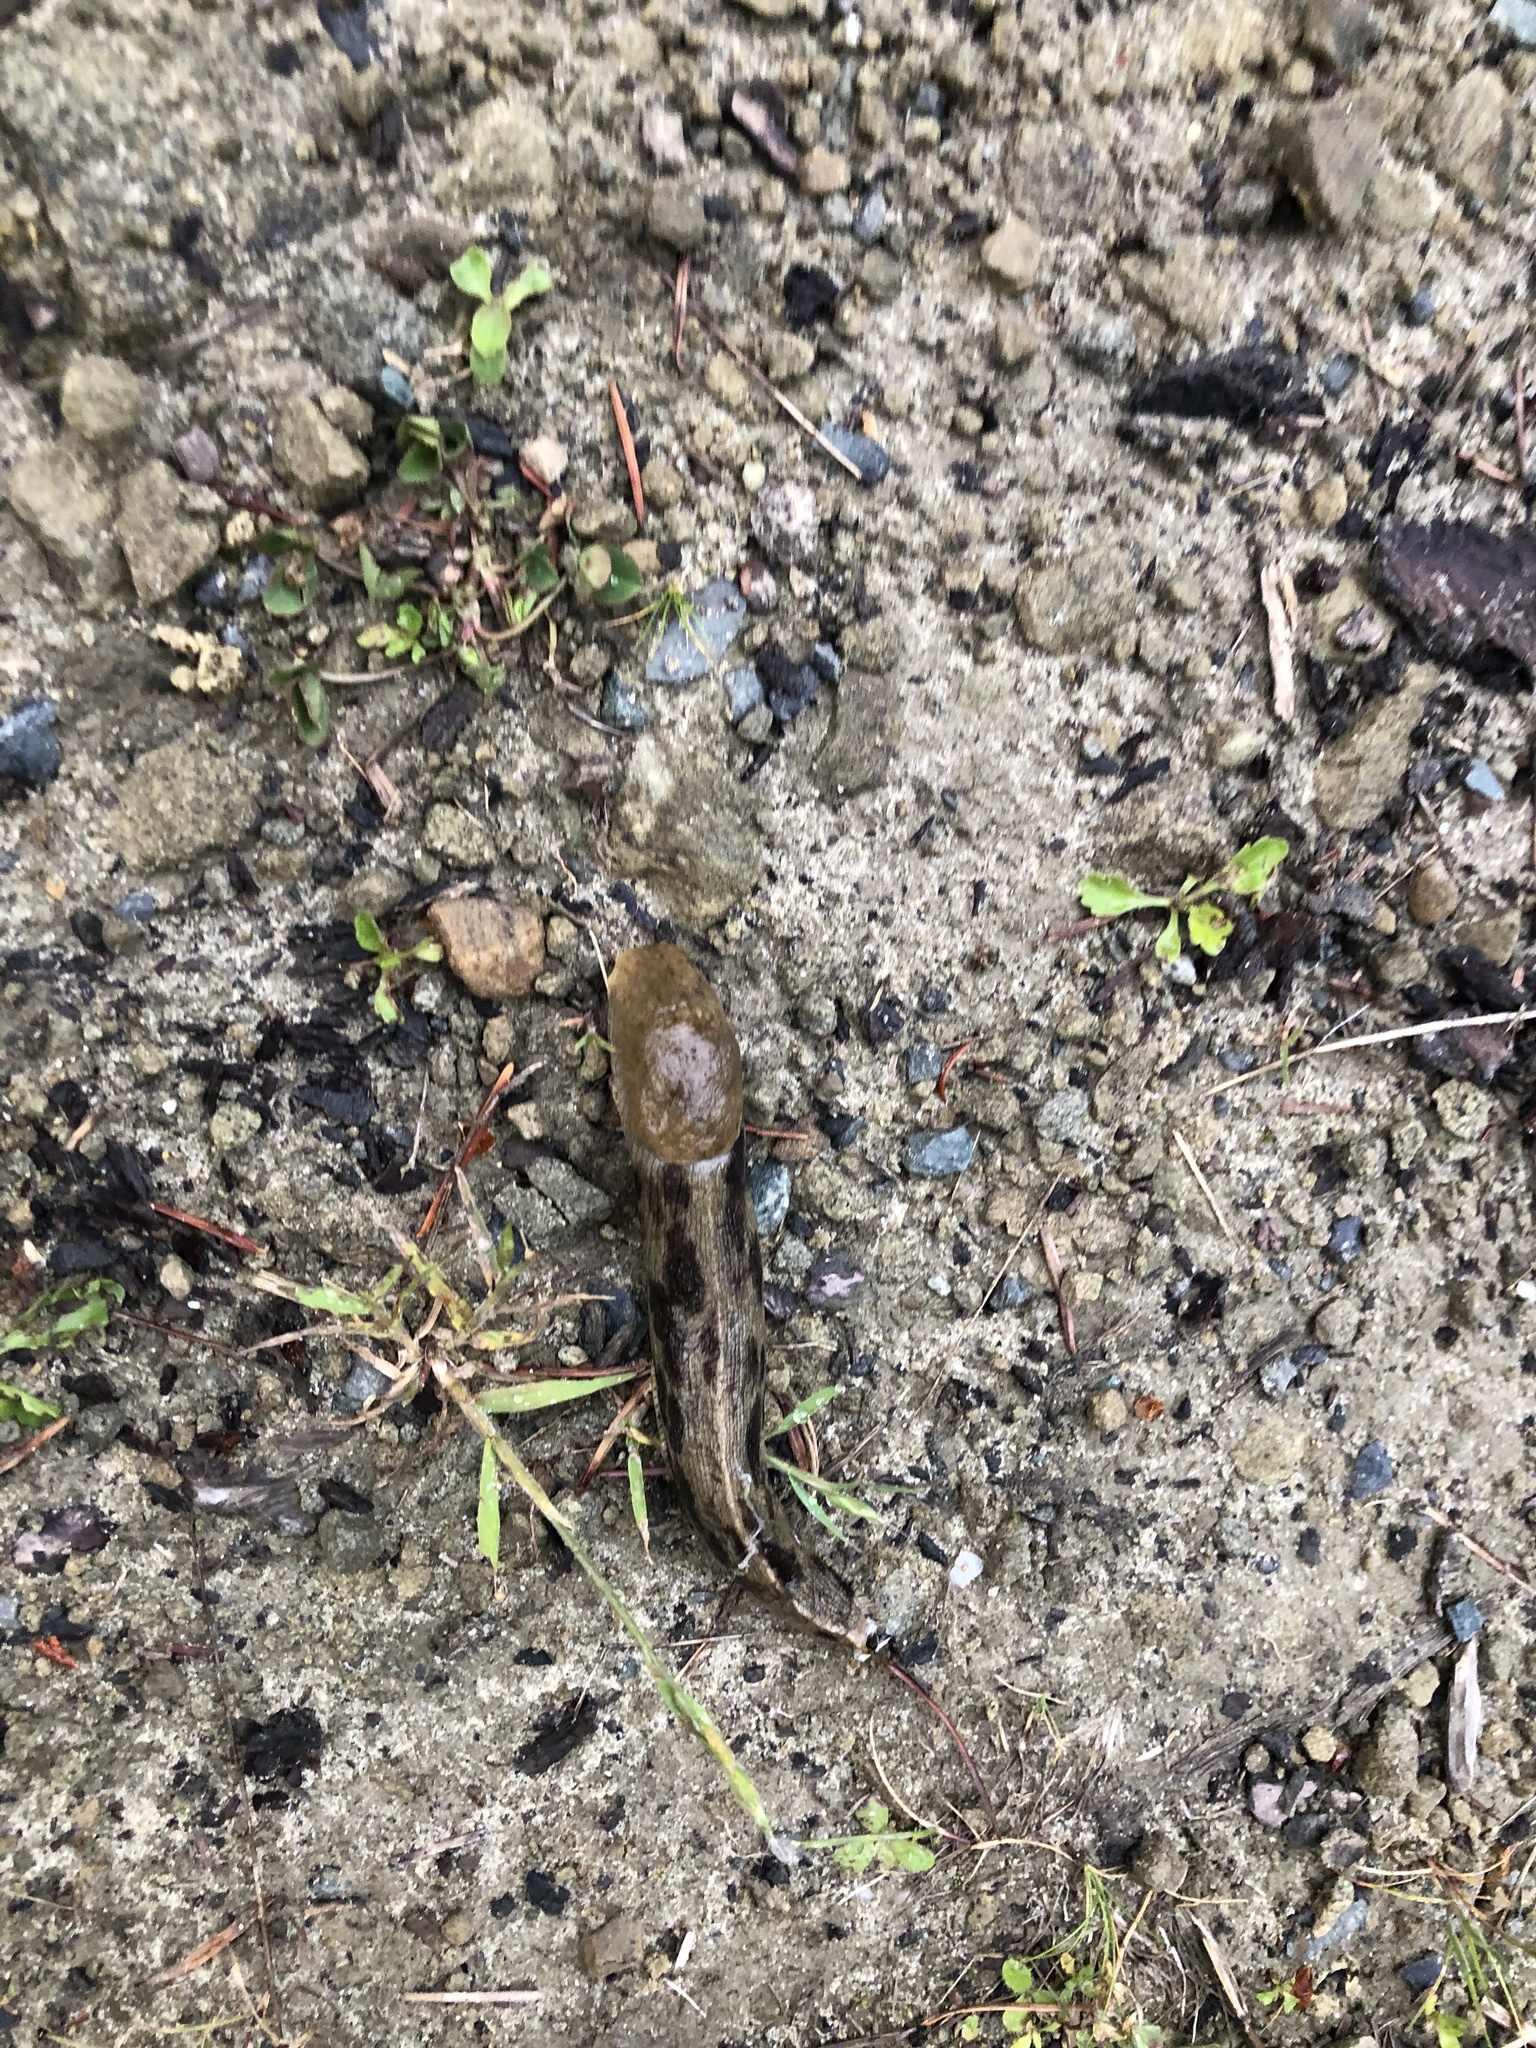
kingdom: Animalia
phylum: Mollusca
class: Gastropoda
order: Stylommatophora
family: Ariolimacidae
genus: Ariolimax
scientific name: Ariolimax columbianus
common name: Pacific banana slug
